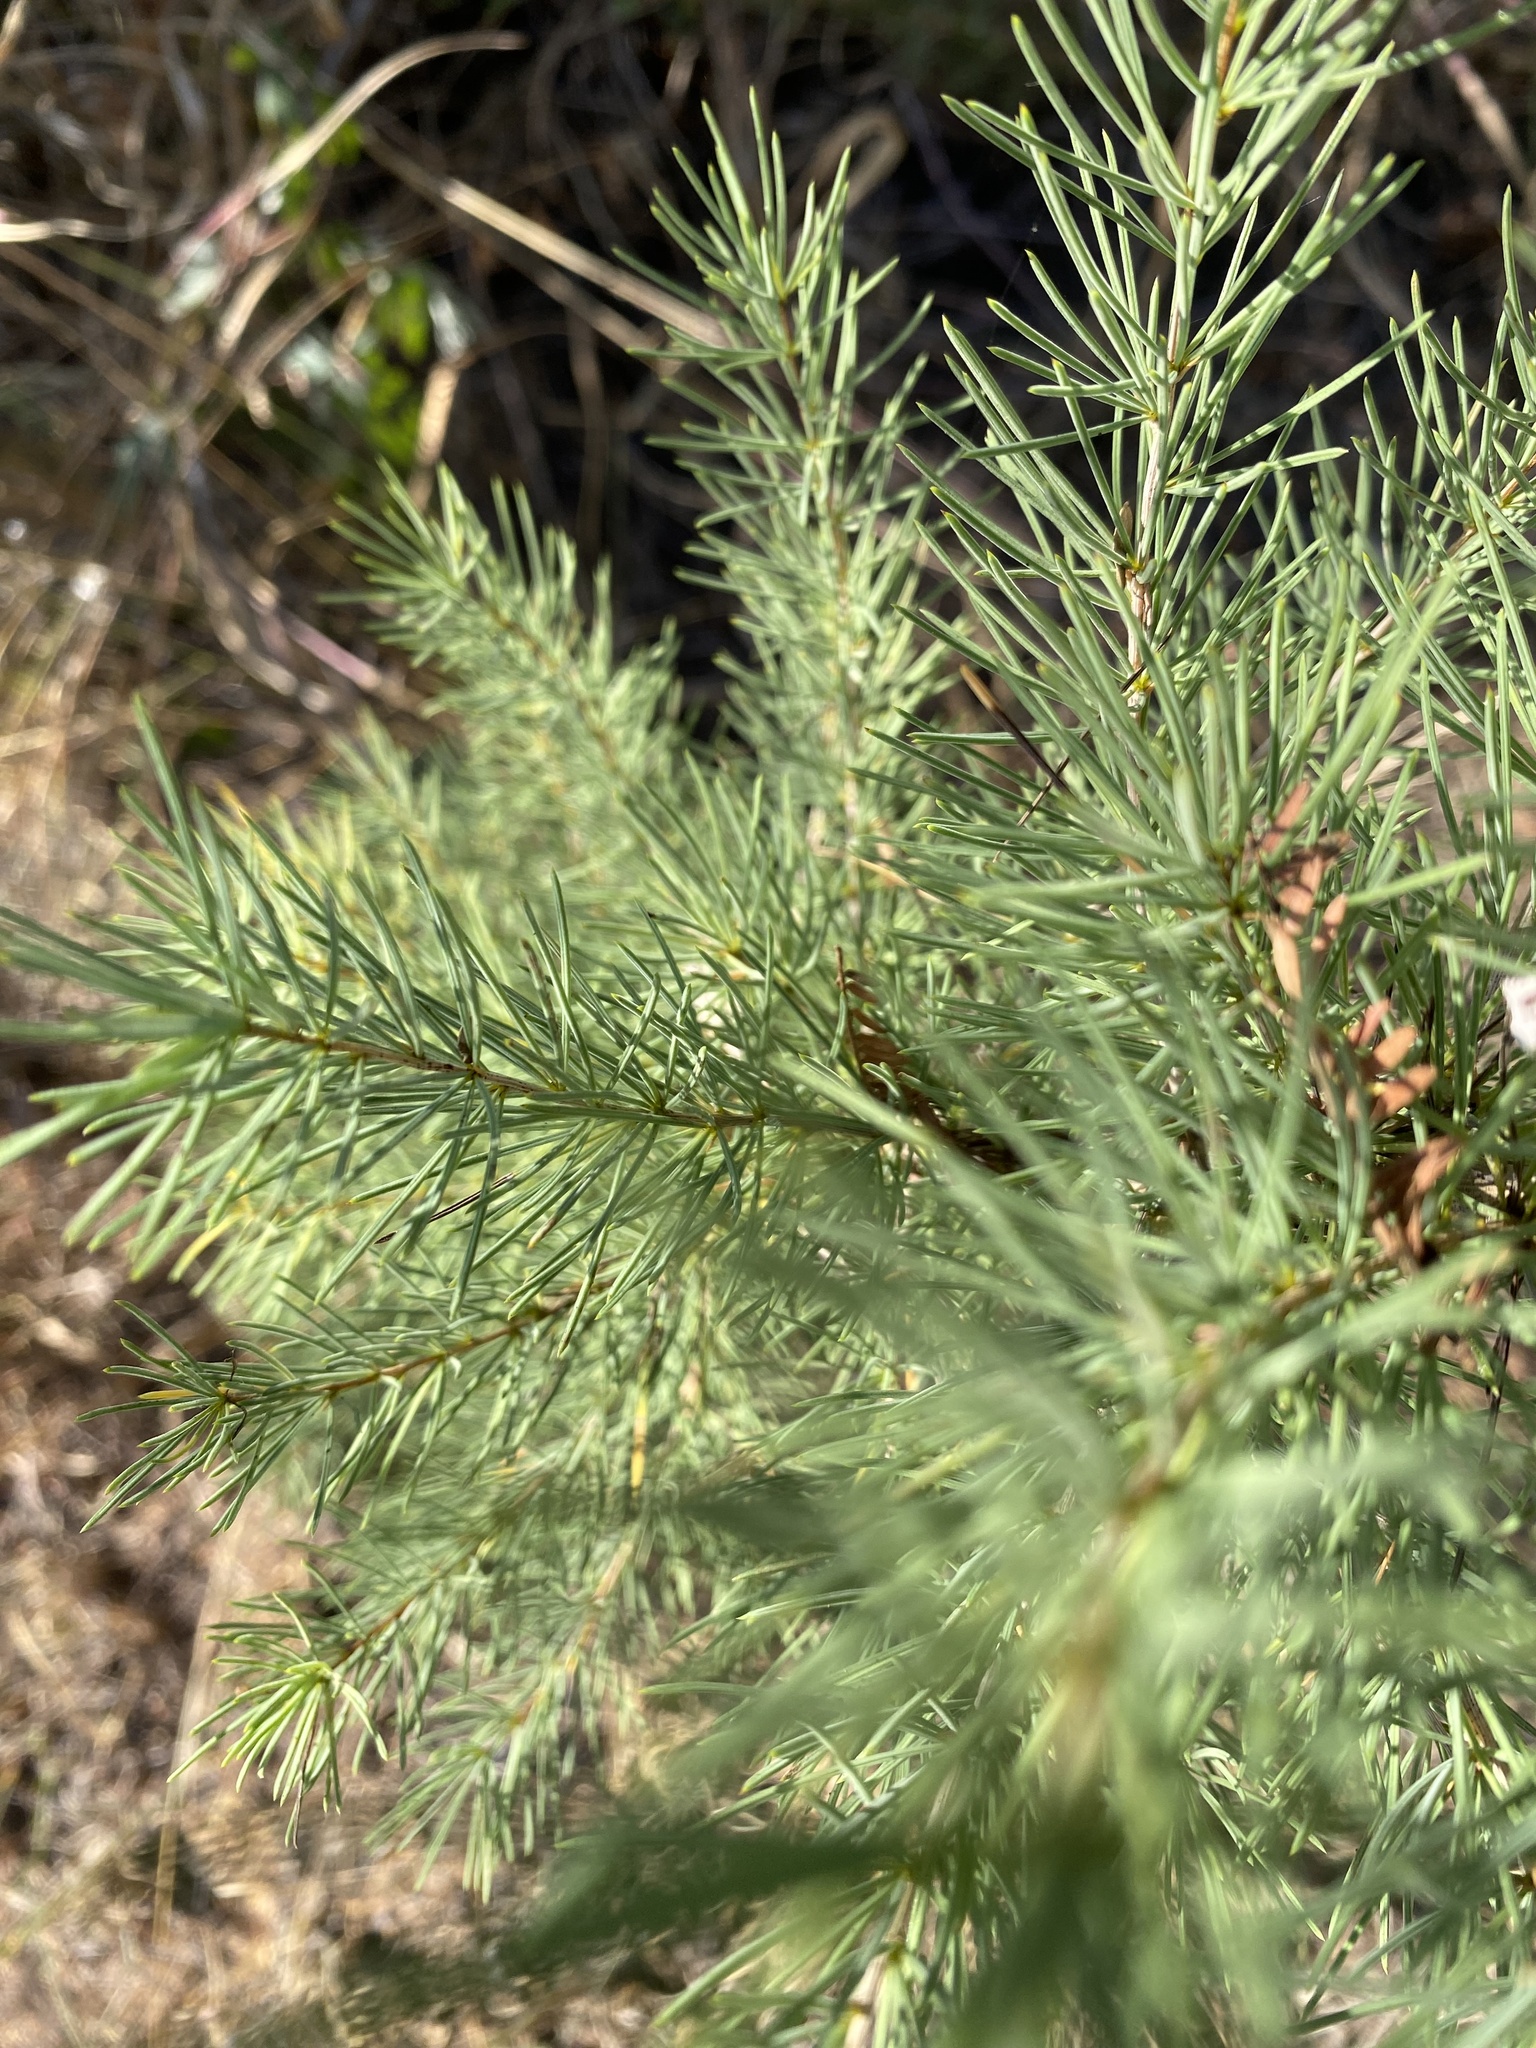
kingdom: Plantae
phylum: Tracheophyta
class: Liliopsida
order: Asparagales
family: Asparagaceae
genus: Asparagus
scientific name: Asparagus schroederi
